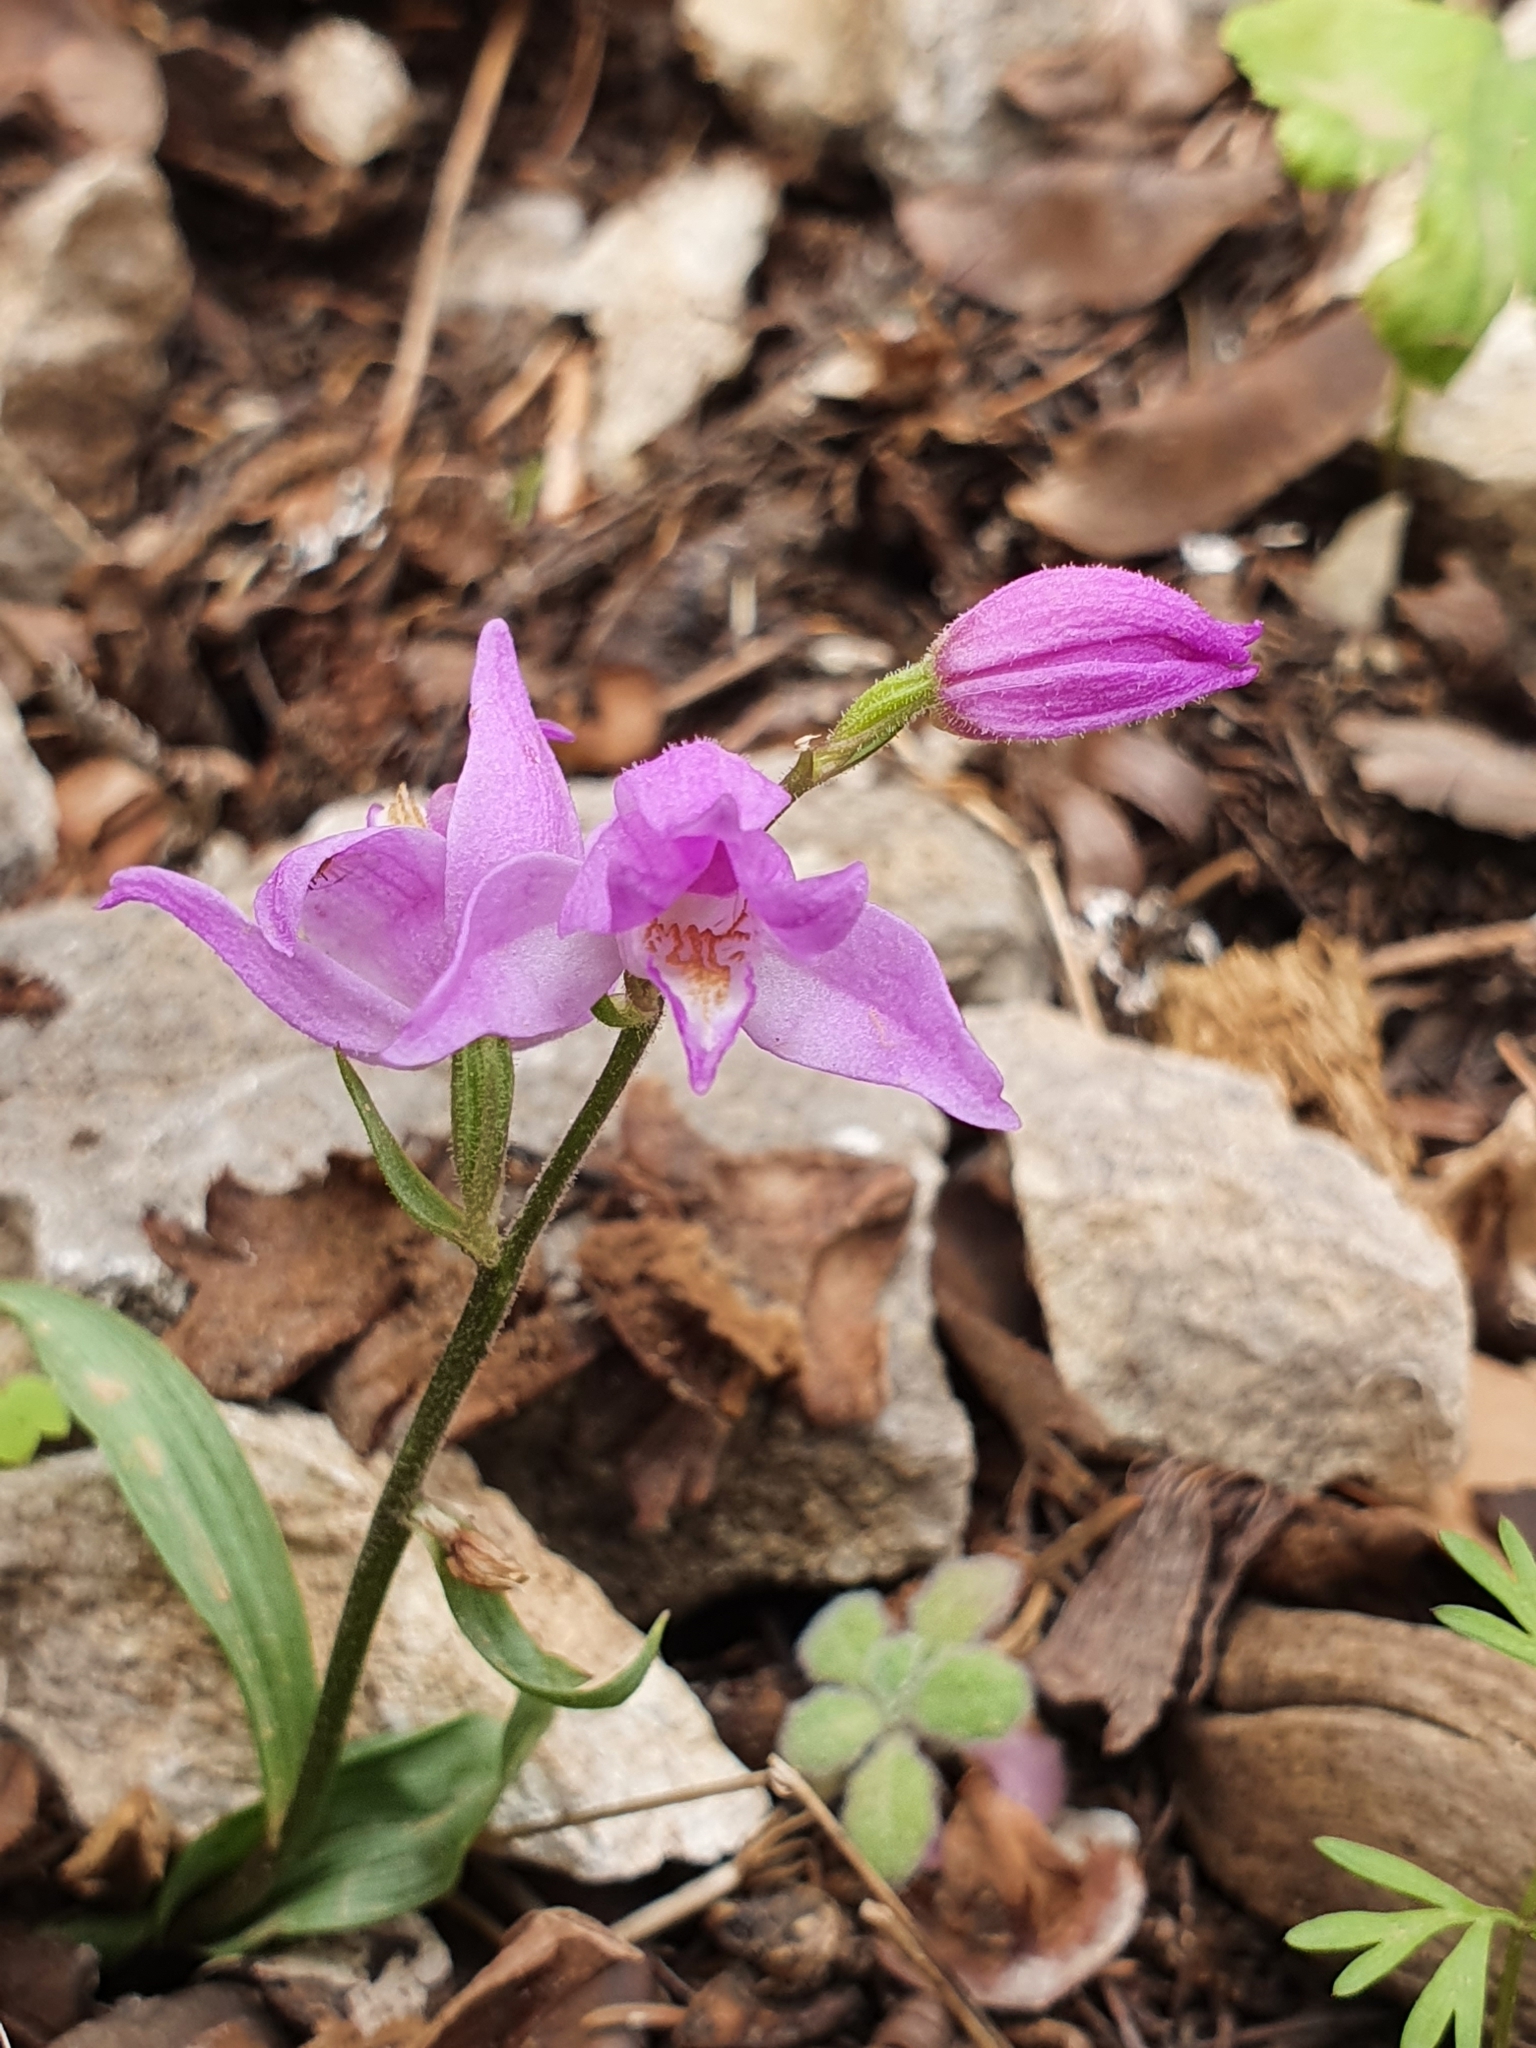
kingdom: Plantae
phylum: Tracheophyta
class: Liliopsida
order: Asparagales
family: Orchidaceae
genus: Cephalanthera
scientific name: Cephalanthera rubra
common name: Red helleborine
